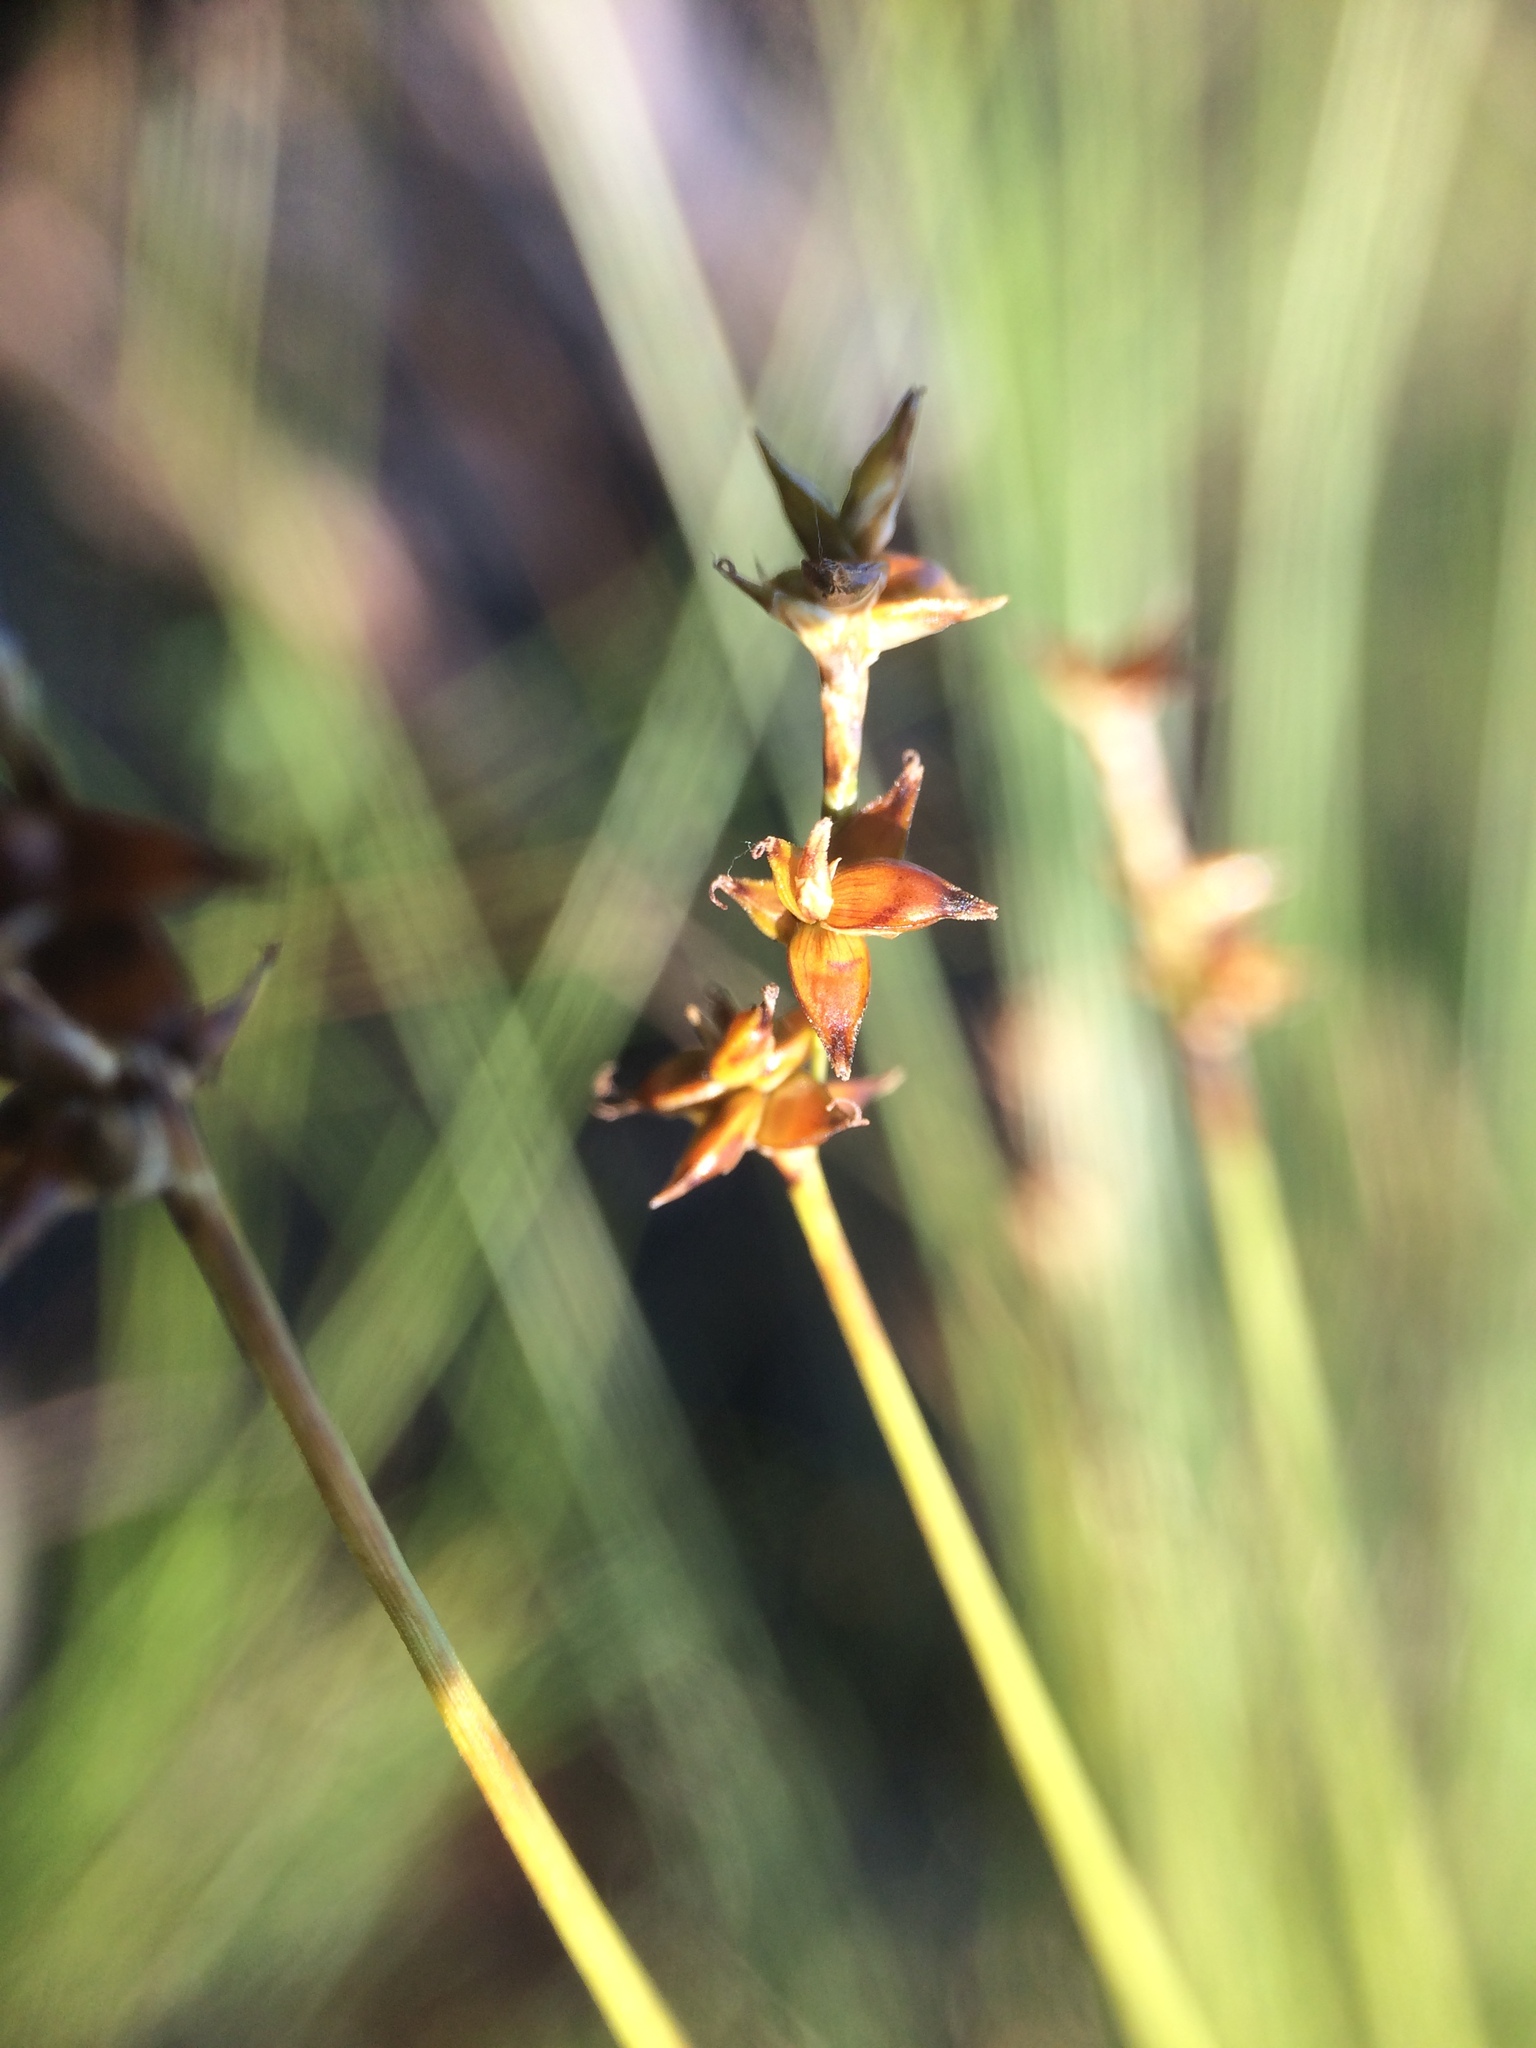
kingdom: Plantae
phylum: Tracheophyta
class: Liliopsida
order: Poales
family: Cyperaceae
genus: Carex
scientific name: Carex interior
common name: Inland sedge
